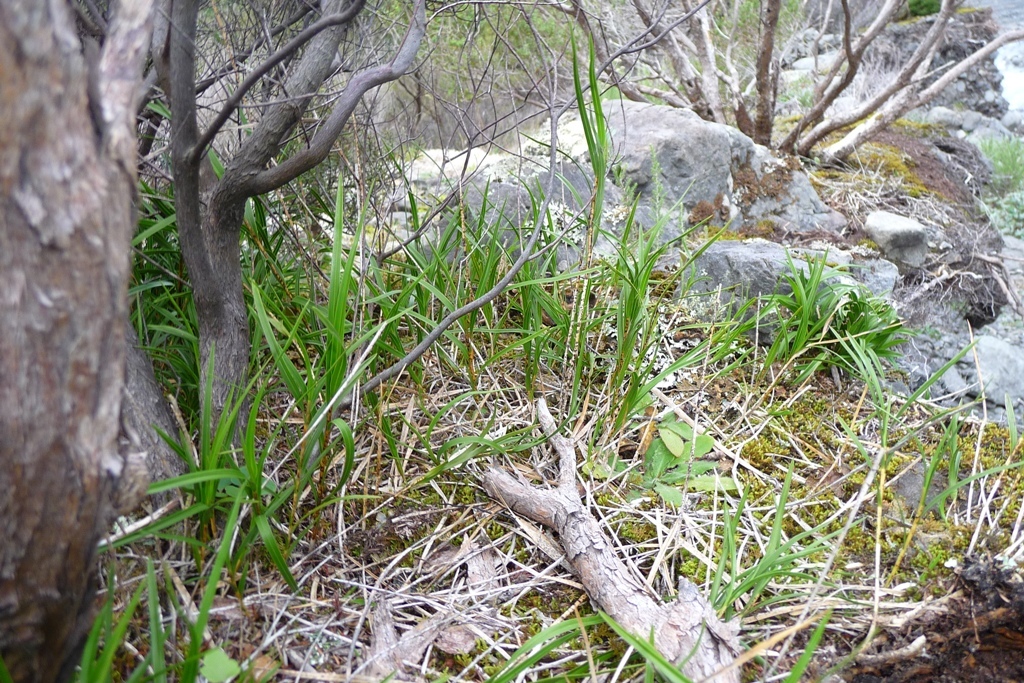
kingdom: Plantae
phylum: Tracheophyta
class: Liliopsida
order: Asparagales
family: Orchidaceae
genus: Earina
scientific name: Earina mucronata
